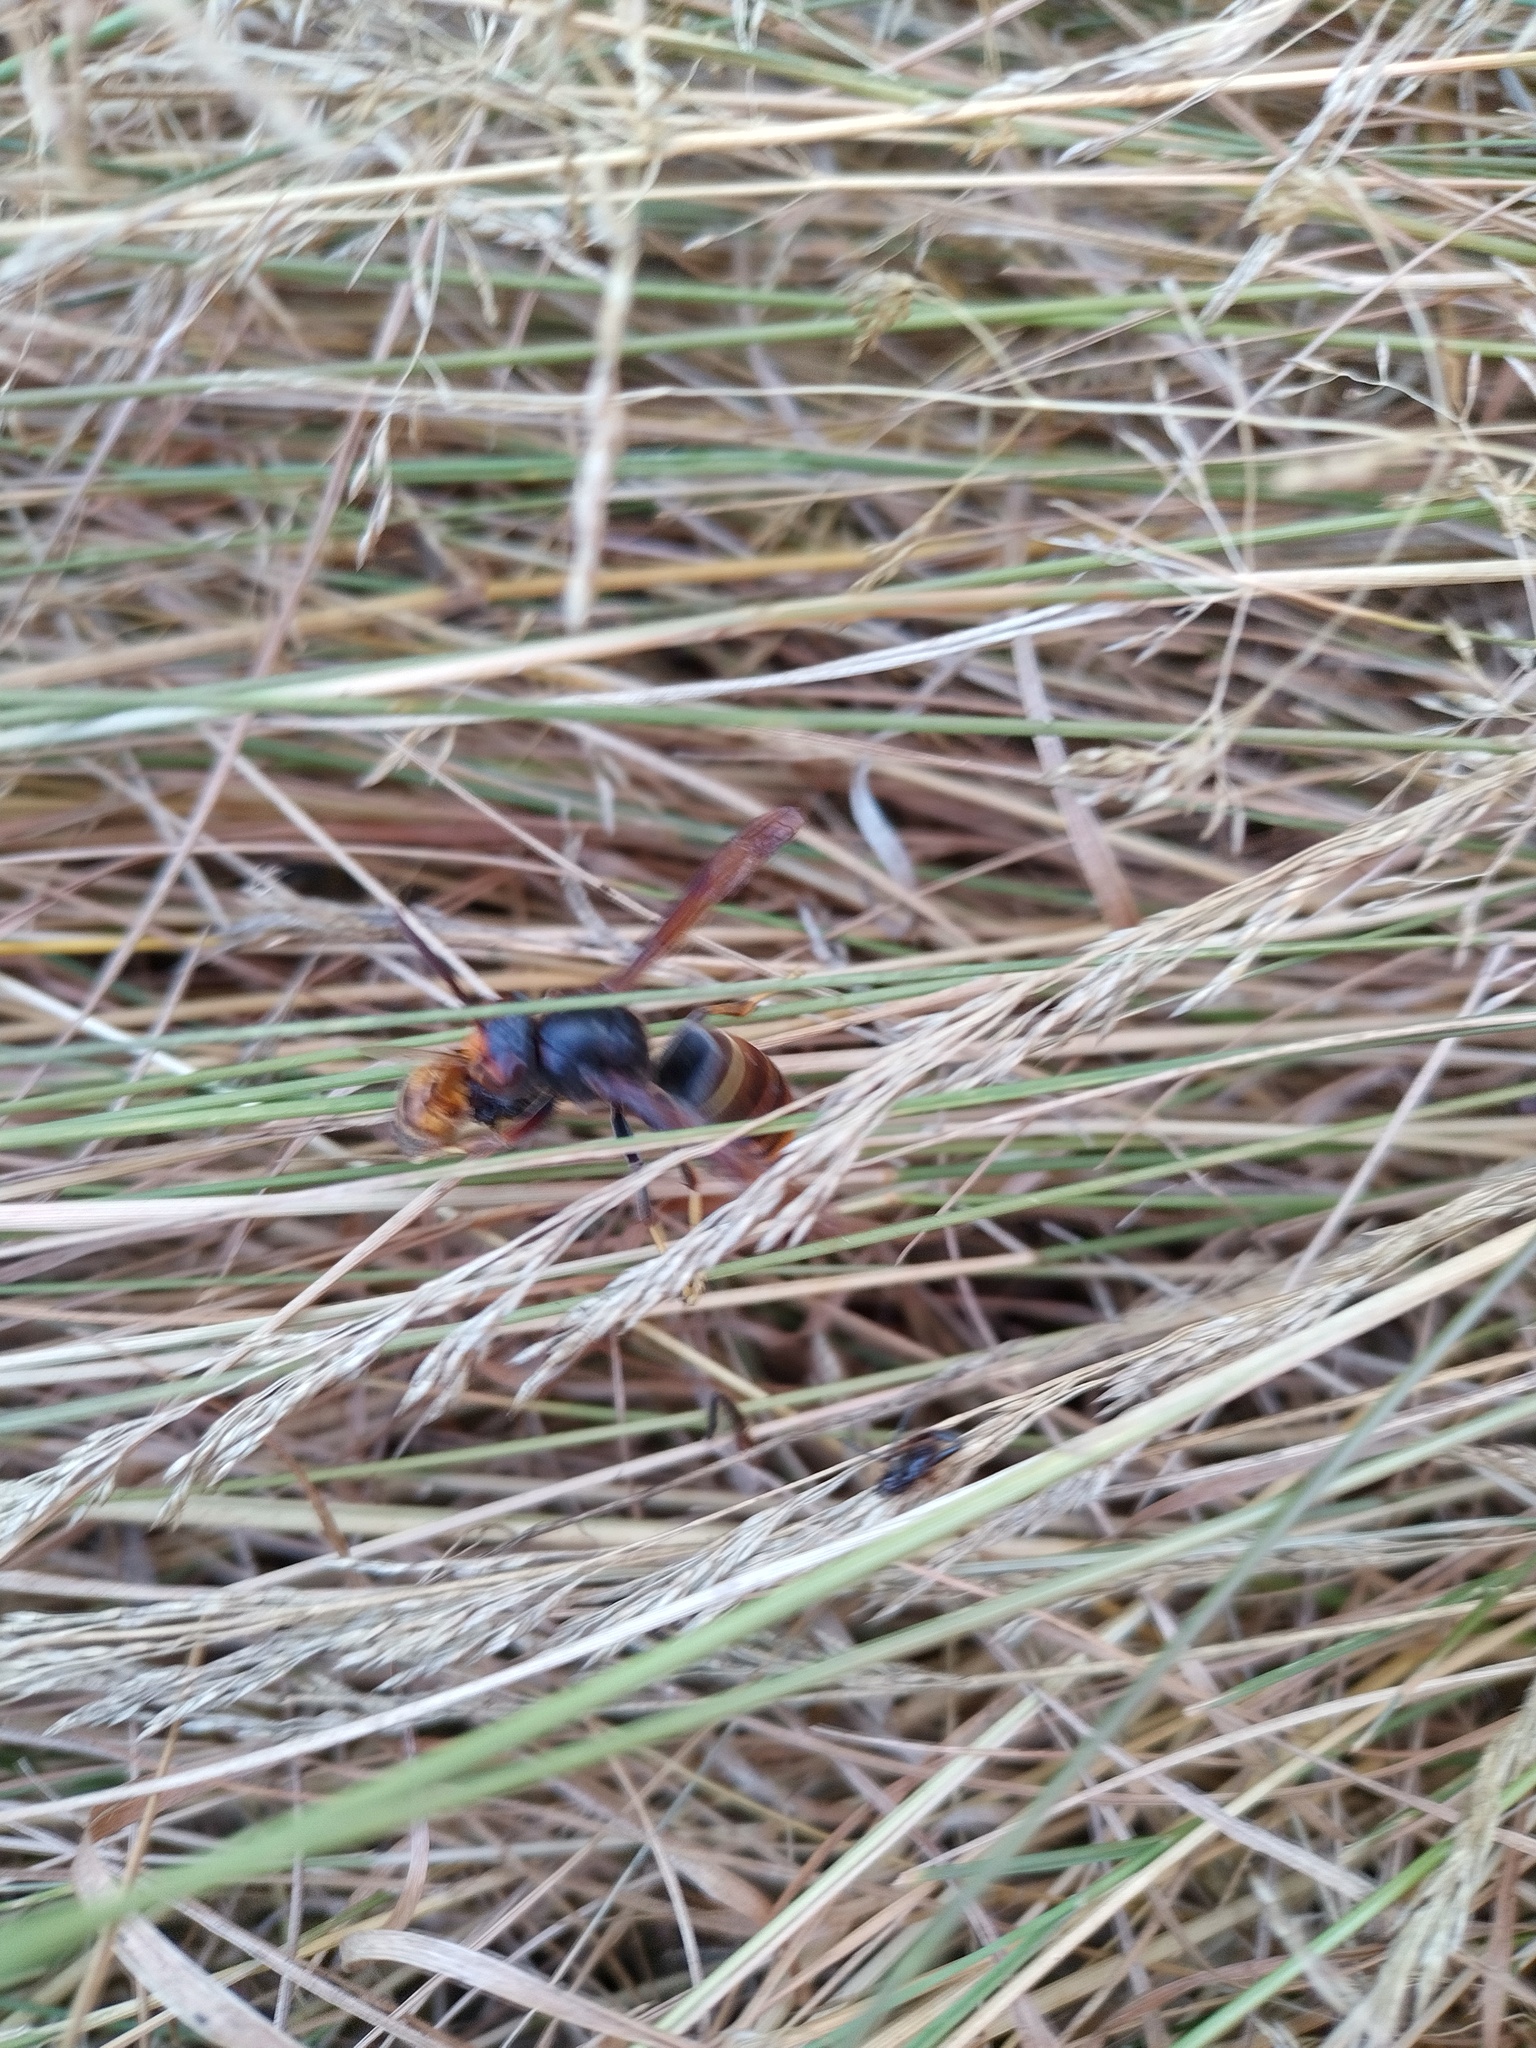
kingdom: Animalia
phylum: Arthropoda
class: Insecta
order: Hymenoptera
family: Vespidae
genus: Vespa
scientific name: Vespa velutina
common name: Asian hornet
